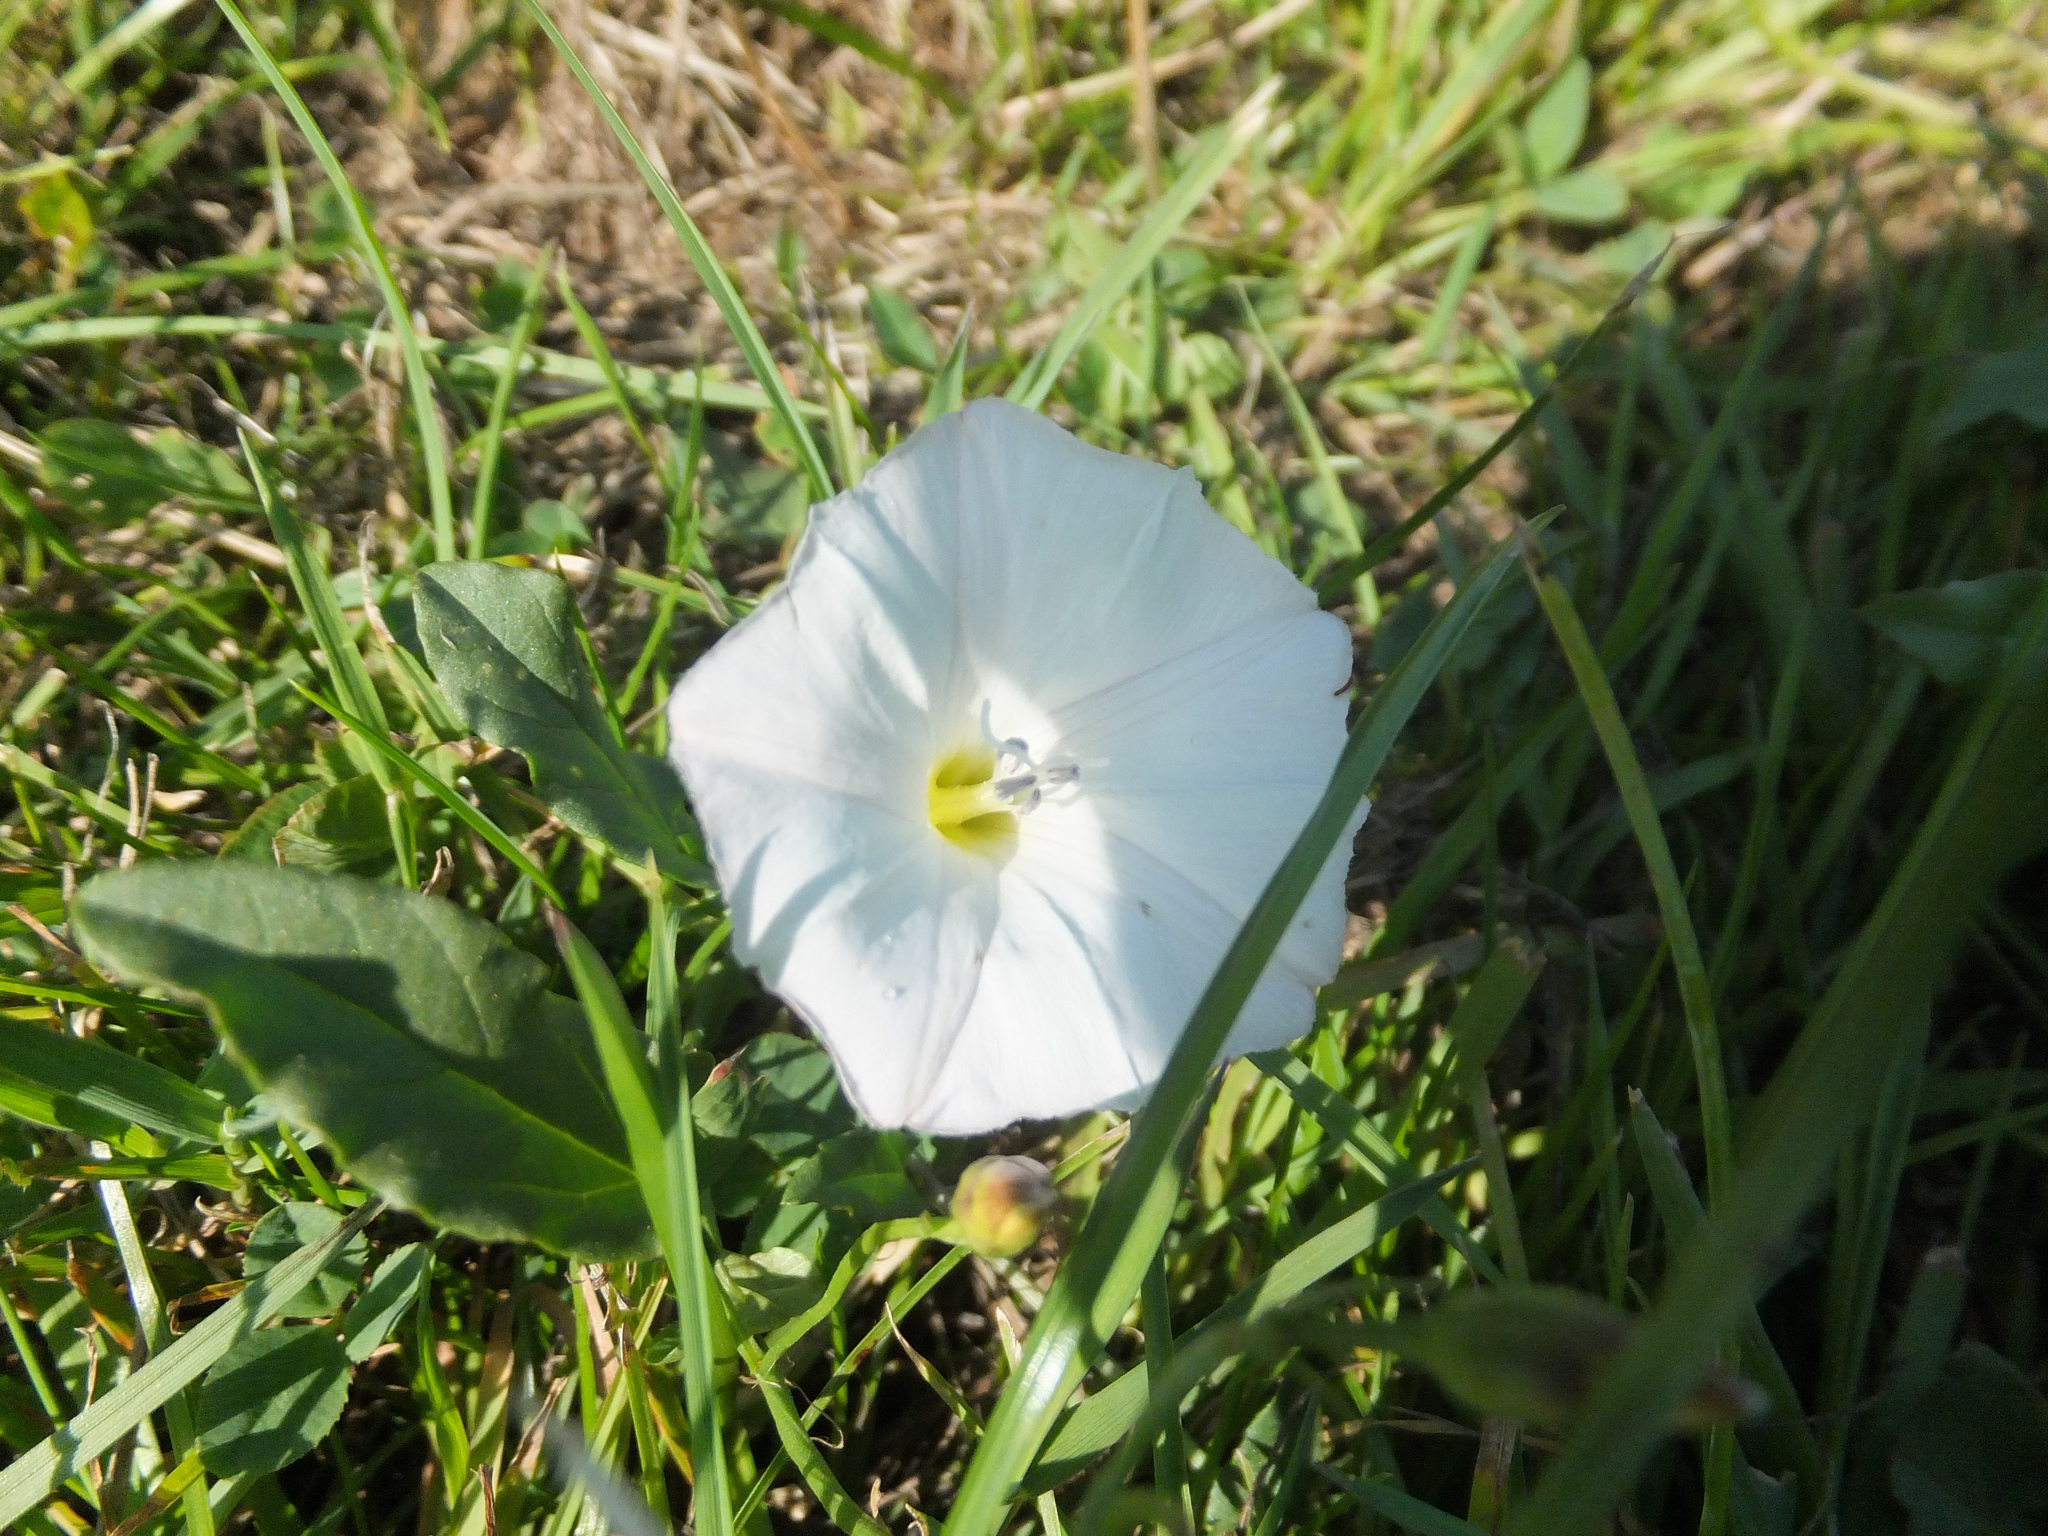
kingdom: Plantae
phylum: Tracheophyta
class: Magnoliopsida
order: Solanales
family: Convolvulaceae
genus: Calystegia
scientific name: Calystegia silvatica
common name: Large bindweed
